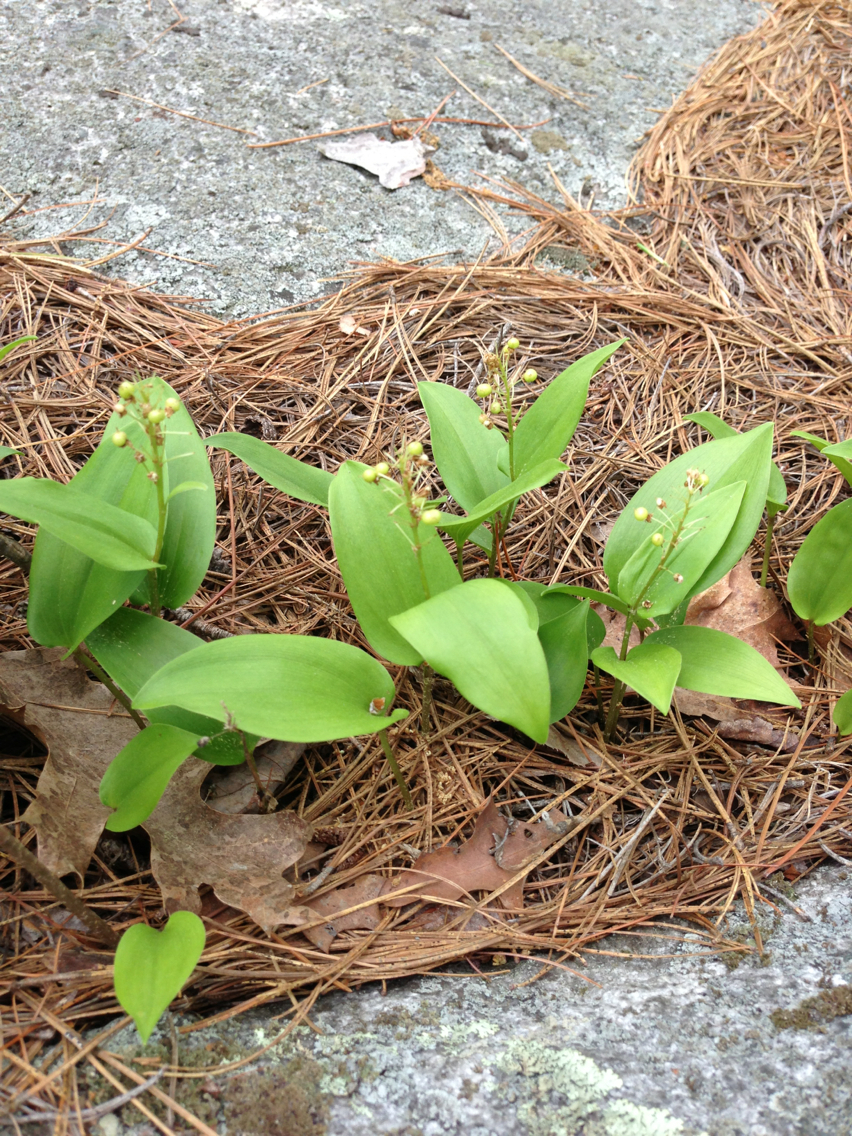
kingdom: Plantae
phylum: Tracheophyta
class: Liliopsida
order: Asparagales
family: Asparagaceae
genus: Maianthemum
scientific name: Maianthemum canadense
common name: False lily-of-the-valley
